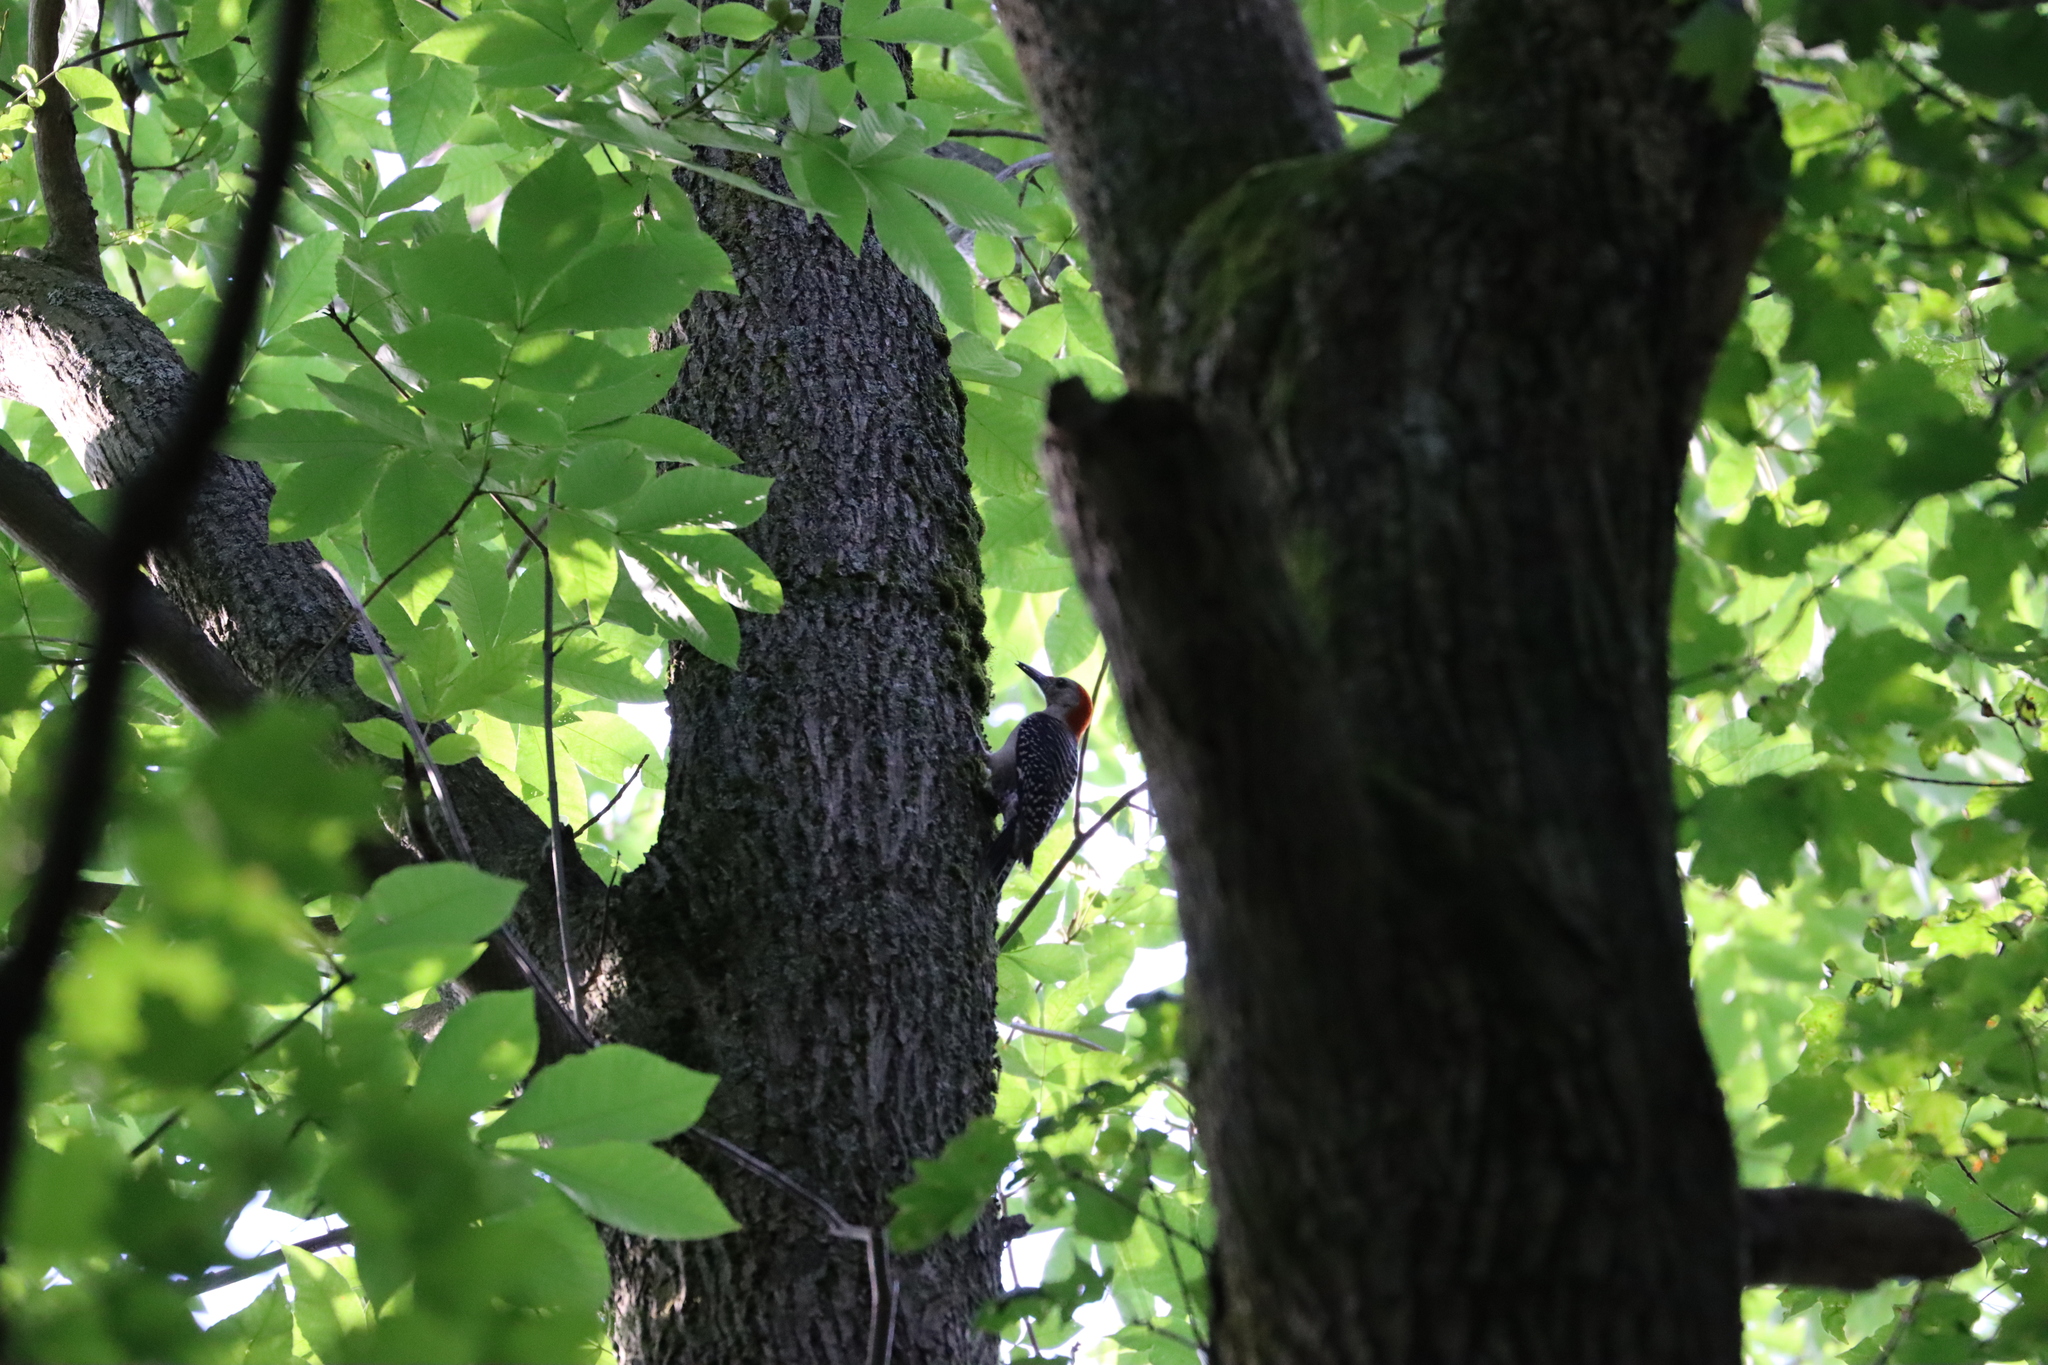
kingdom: Animalia
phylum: Chordata
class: Aves
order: Piciformes
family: Picidae
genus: Melanerpes
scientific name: Melanerpes carolinus
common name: Red-bellied woodpecker
